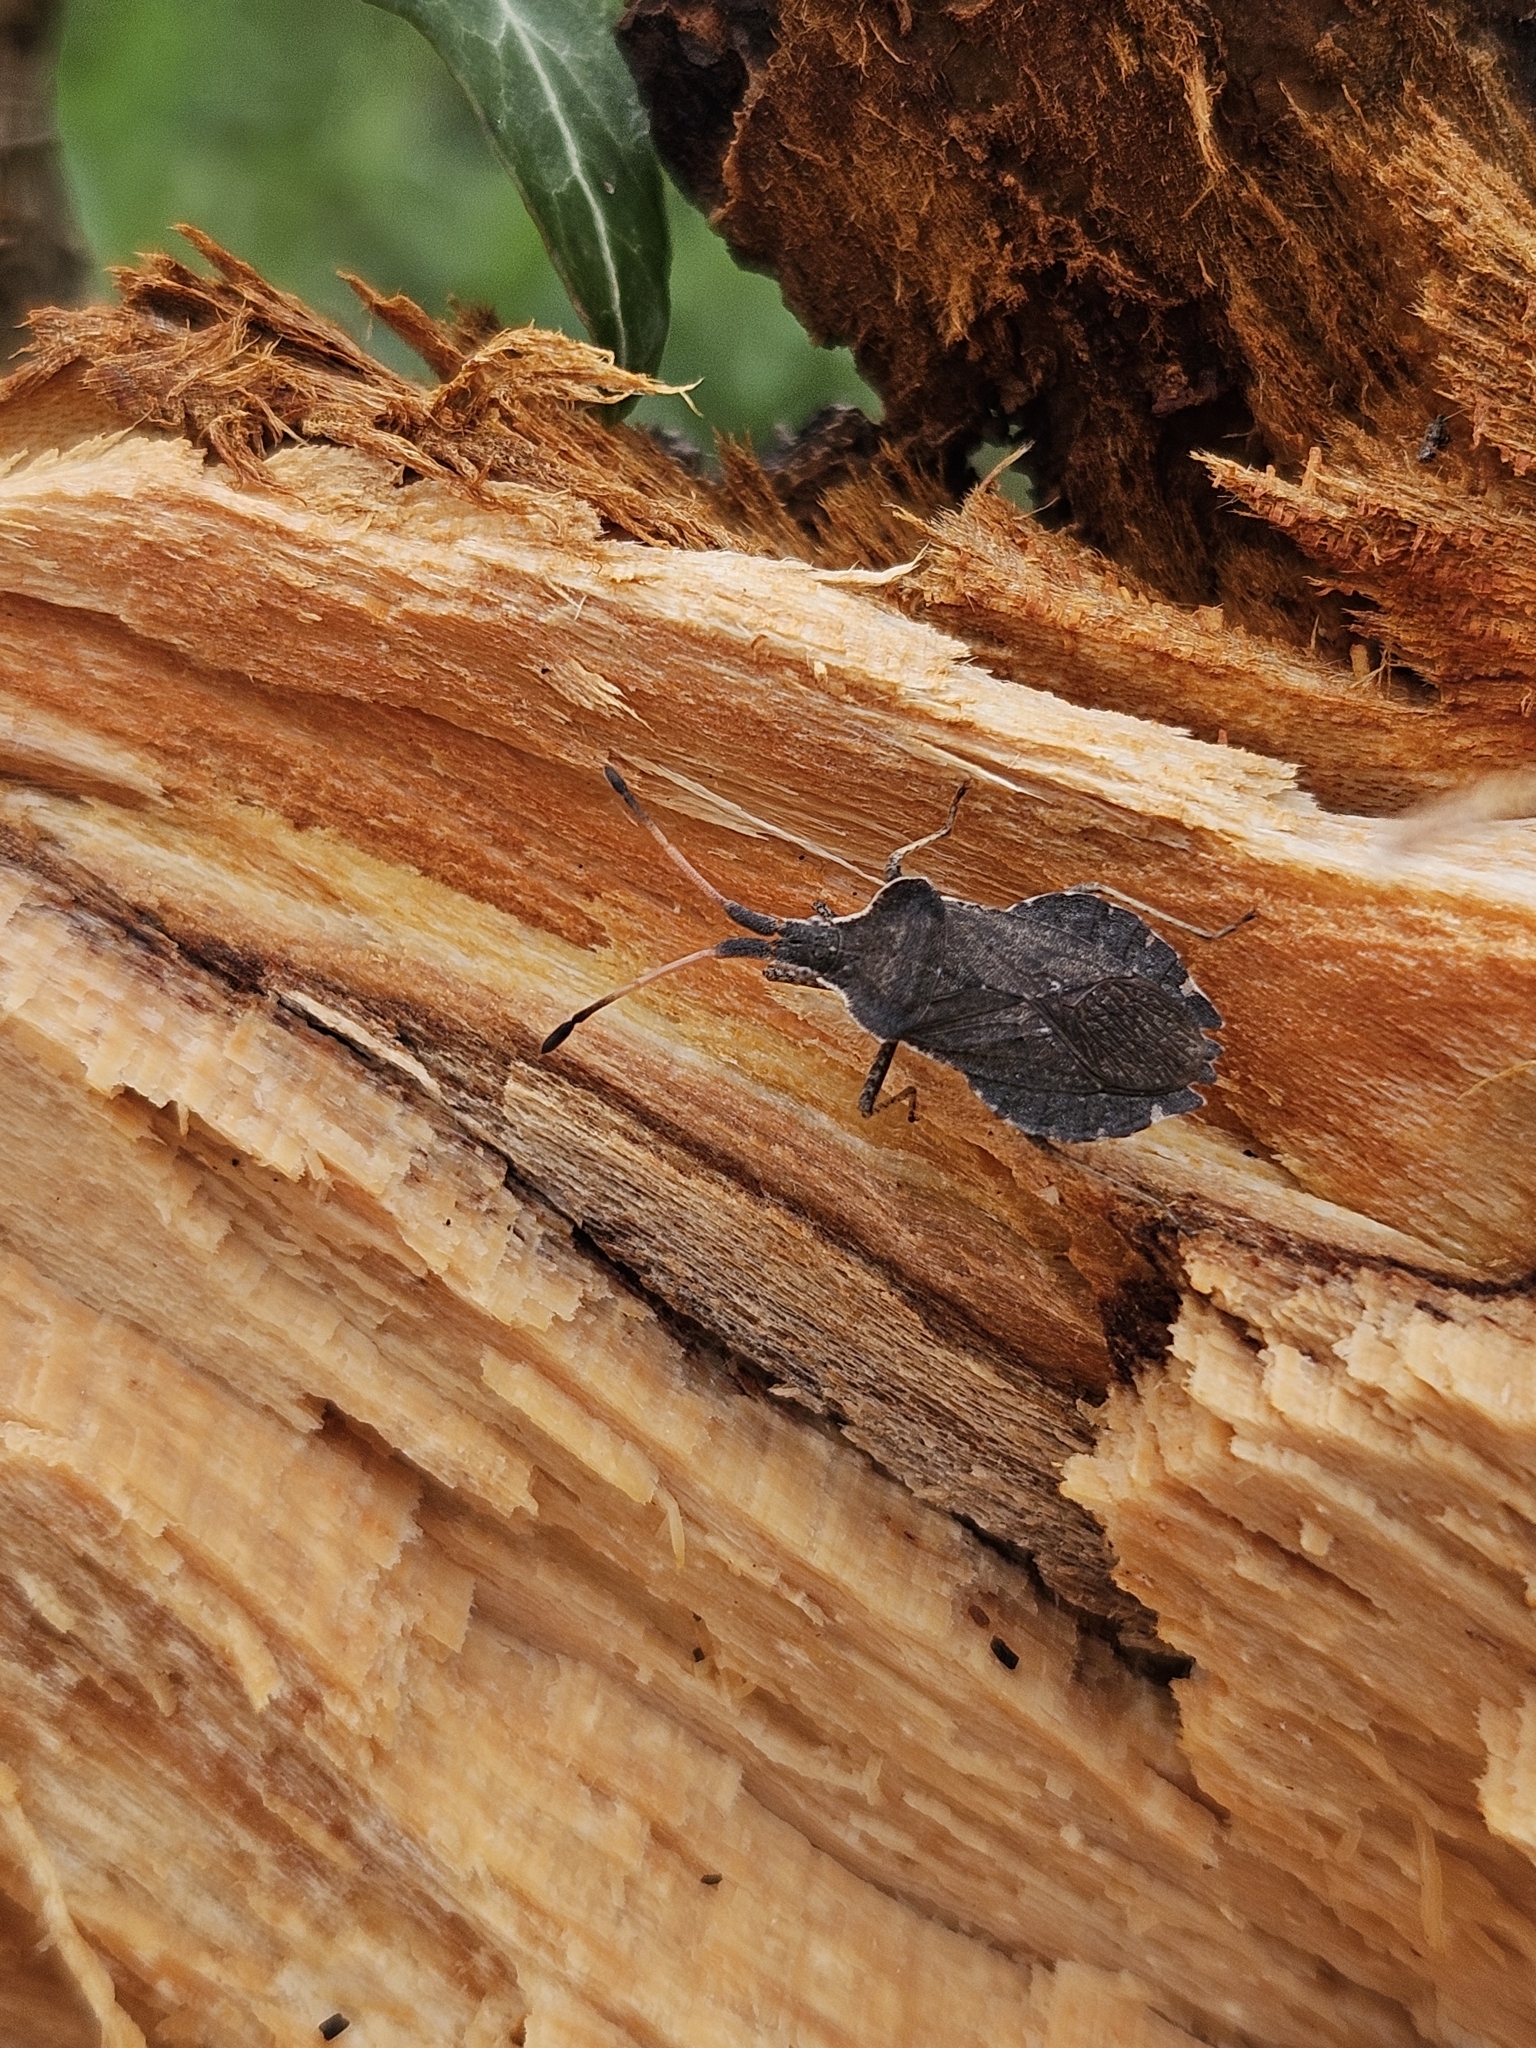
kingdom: Animalia
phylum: Arthropoda
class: Insecta
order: Hemiptera
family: Coreidae
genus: Enoplops
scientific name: Enoplops scapha
